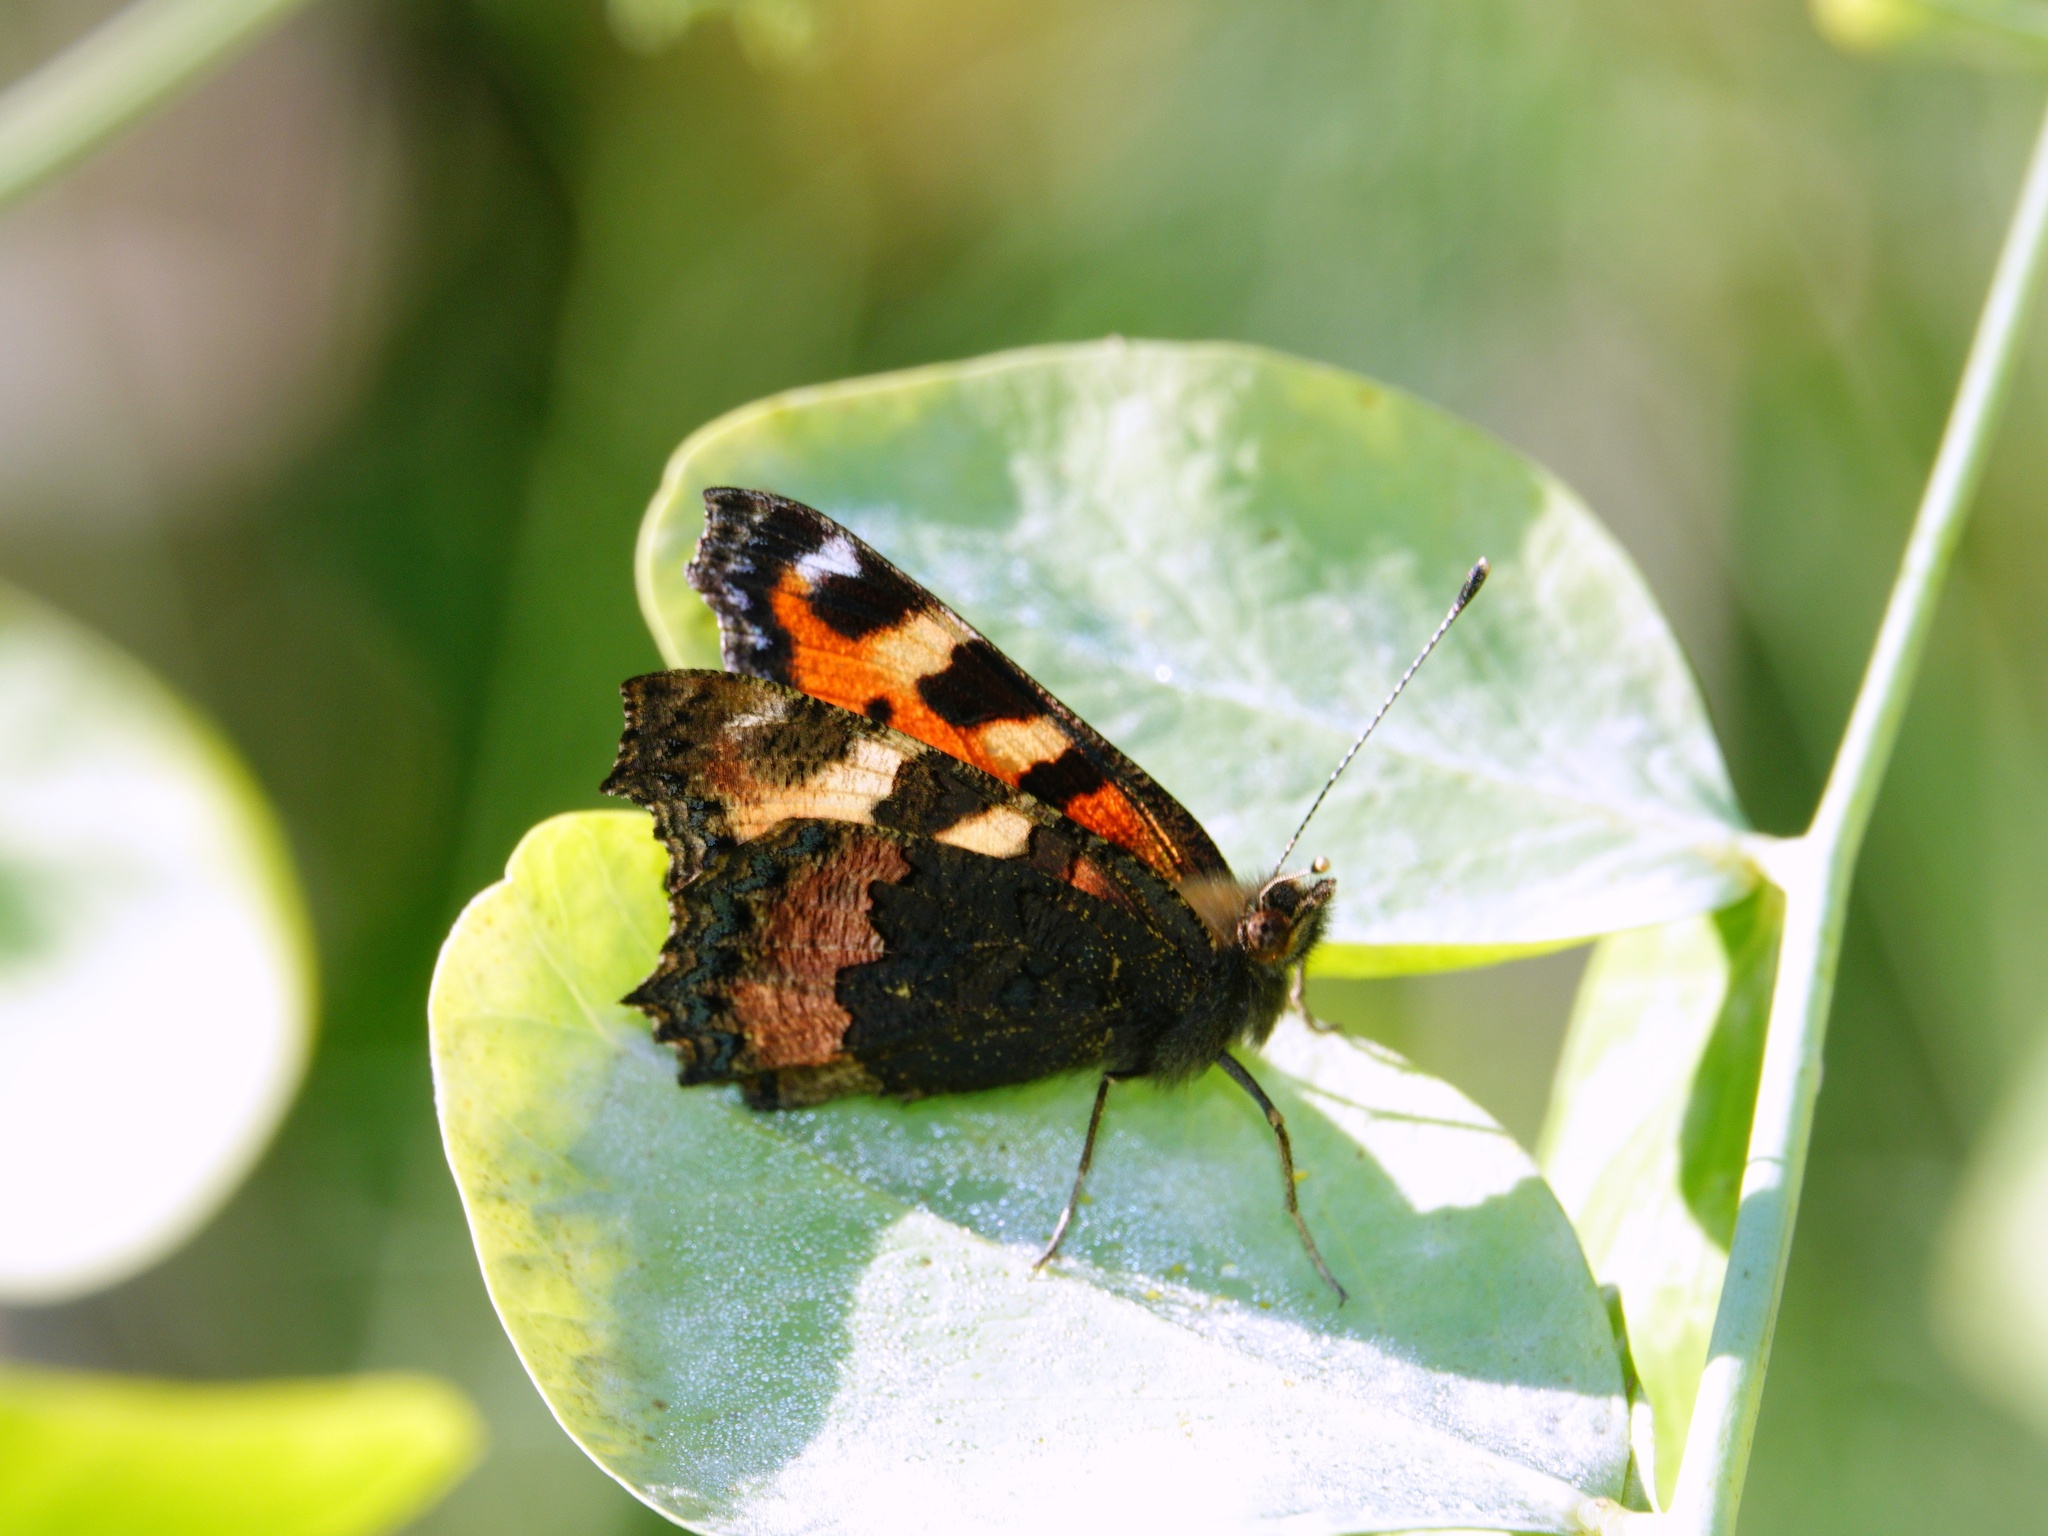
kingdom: Animalia
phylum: Arthropoda
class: Insecta
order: Lepidoptera
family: Nymphalidae
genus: Aglais
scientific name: Aglais urticae
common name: Small tortoiseshell
